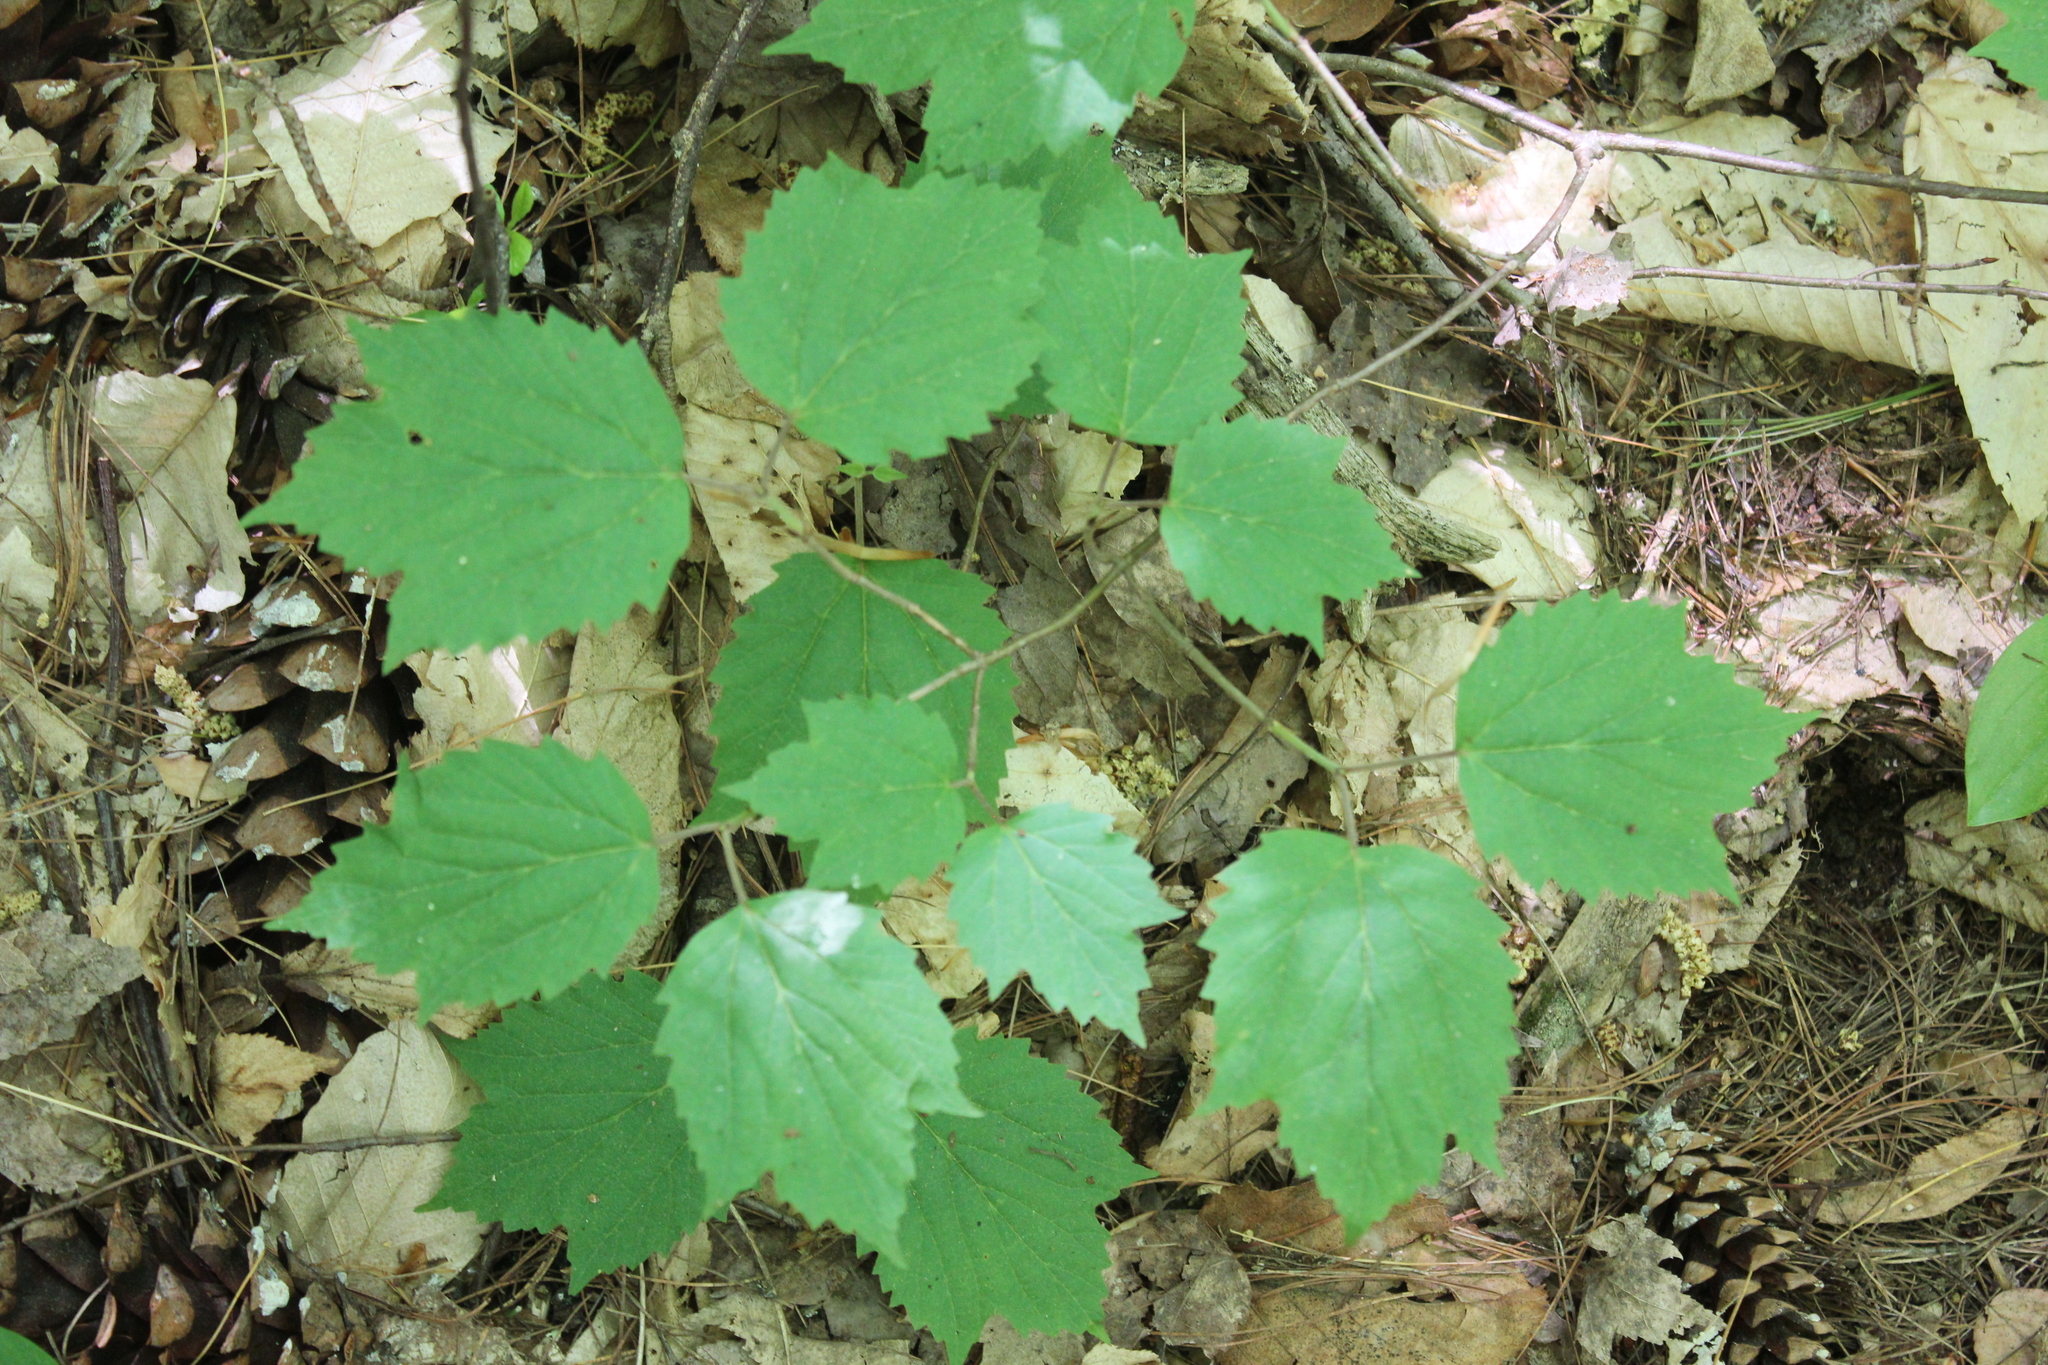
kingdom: Plantae
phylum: Tracheophyta
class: Magnoliopsida
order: Dipsacales
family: Viburnaceae
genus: Viburnum
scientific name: Viburnum acerifolium
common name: Dockmackie
